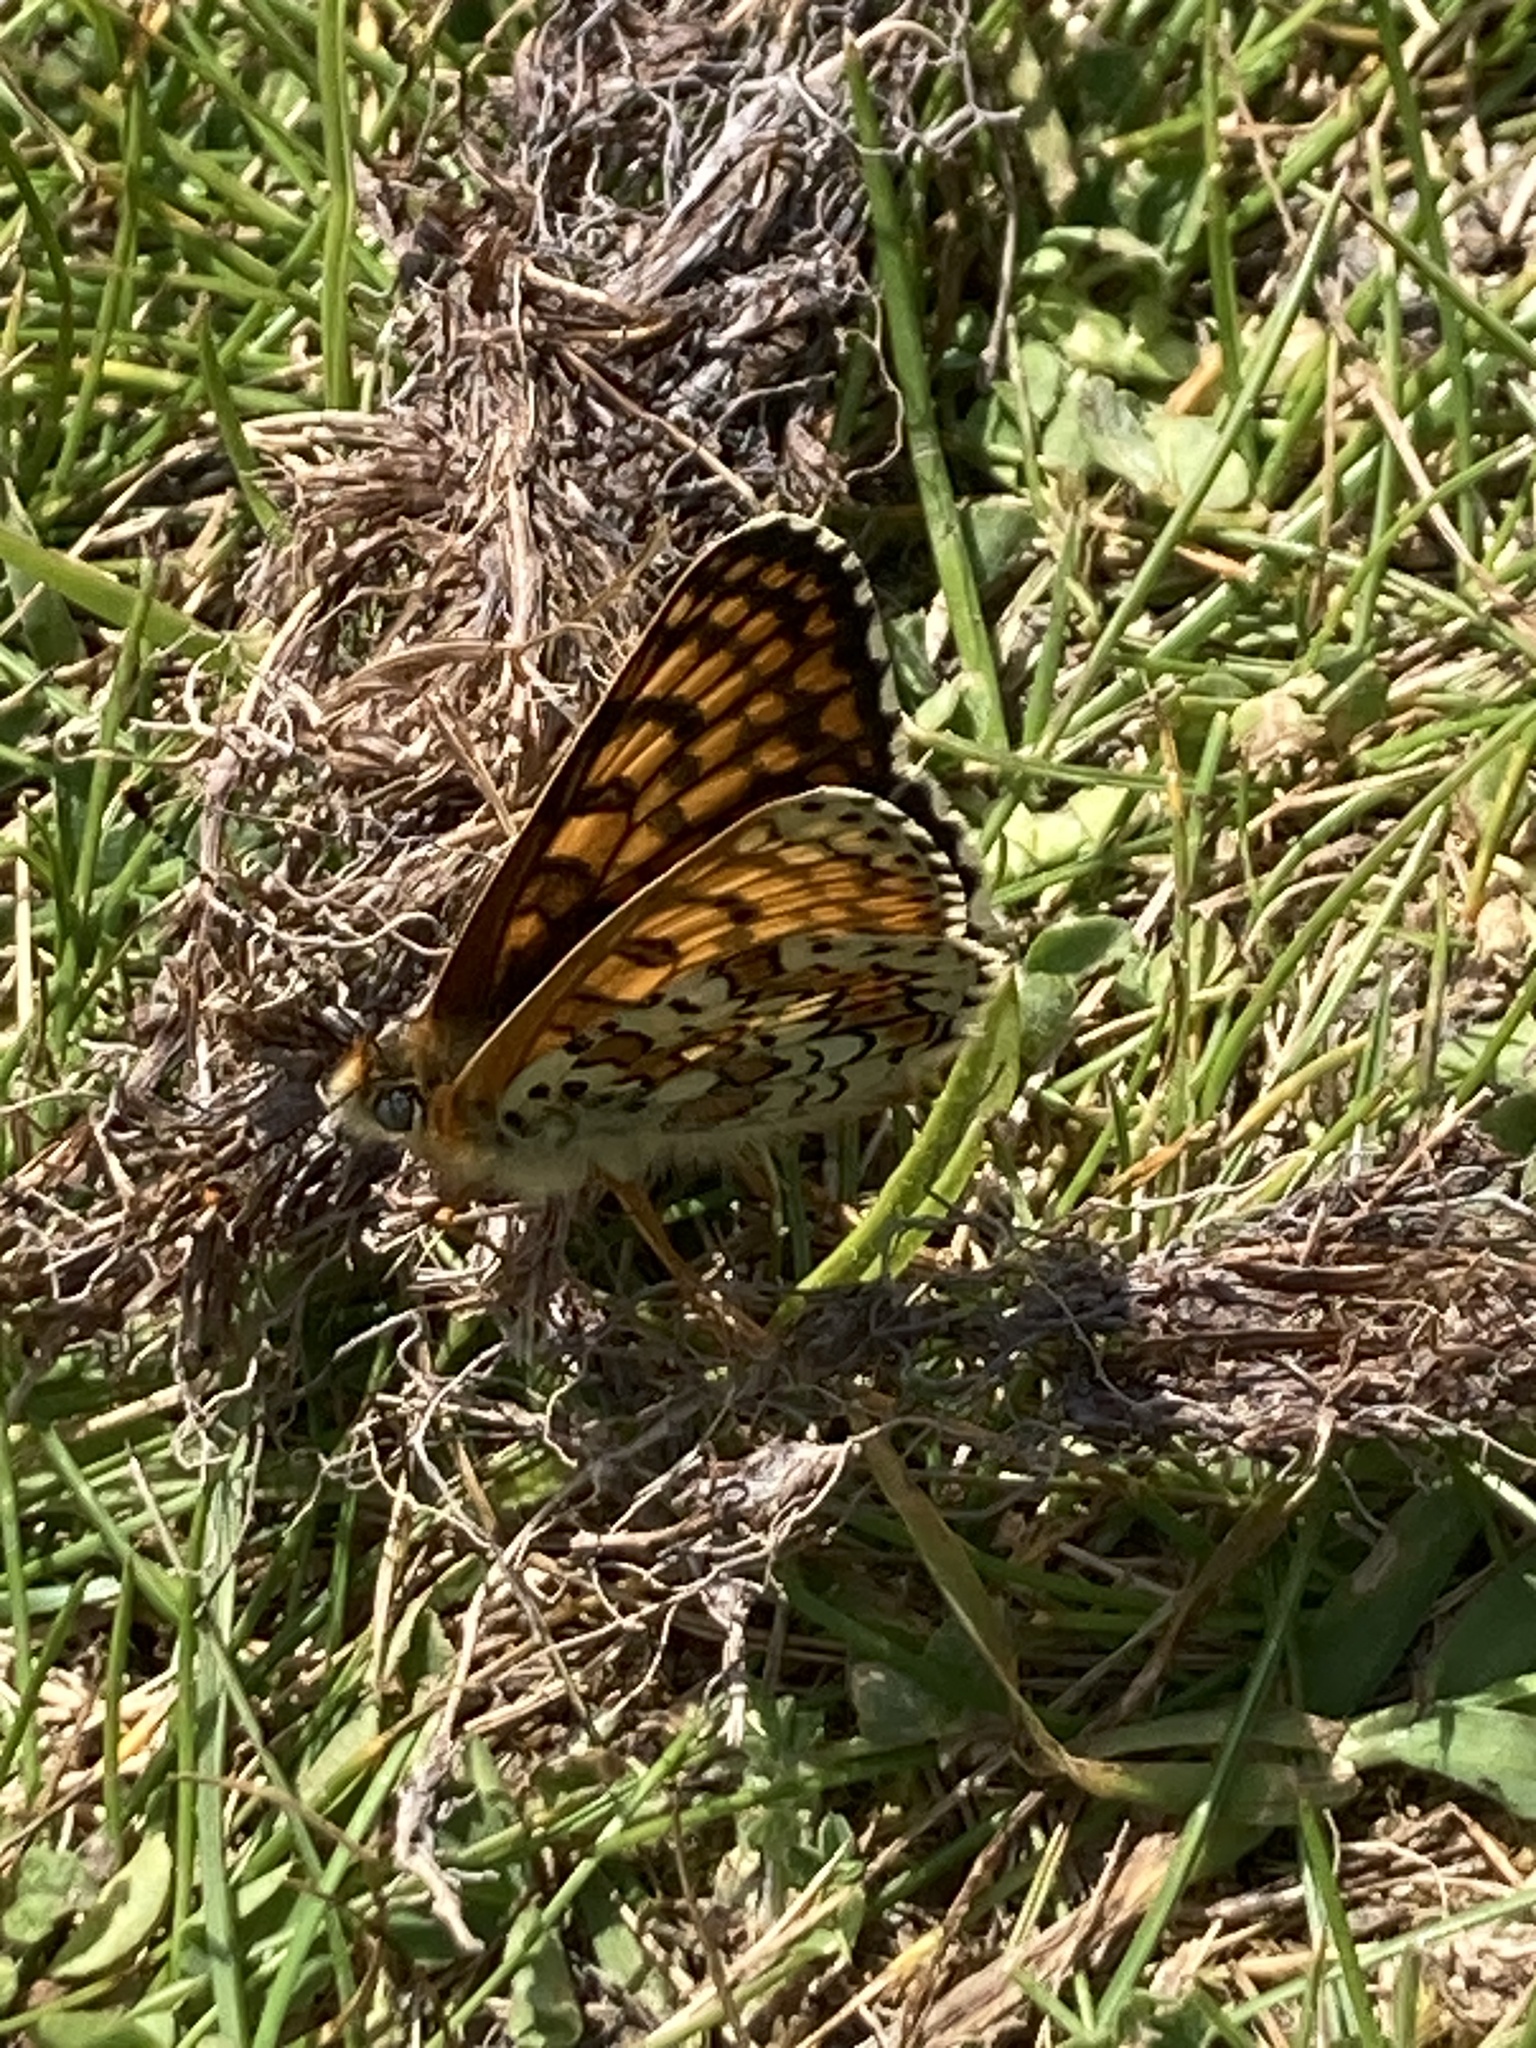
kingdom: Animalia
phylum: Arthropoda
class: Insecta
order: Lepidoptera
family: Nymphalidae
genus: Melitaea
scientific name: Melitaea cinxia
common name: Glanville fritillary
